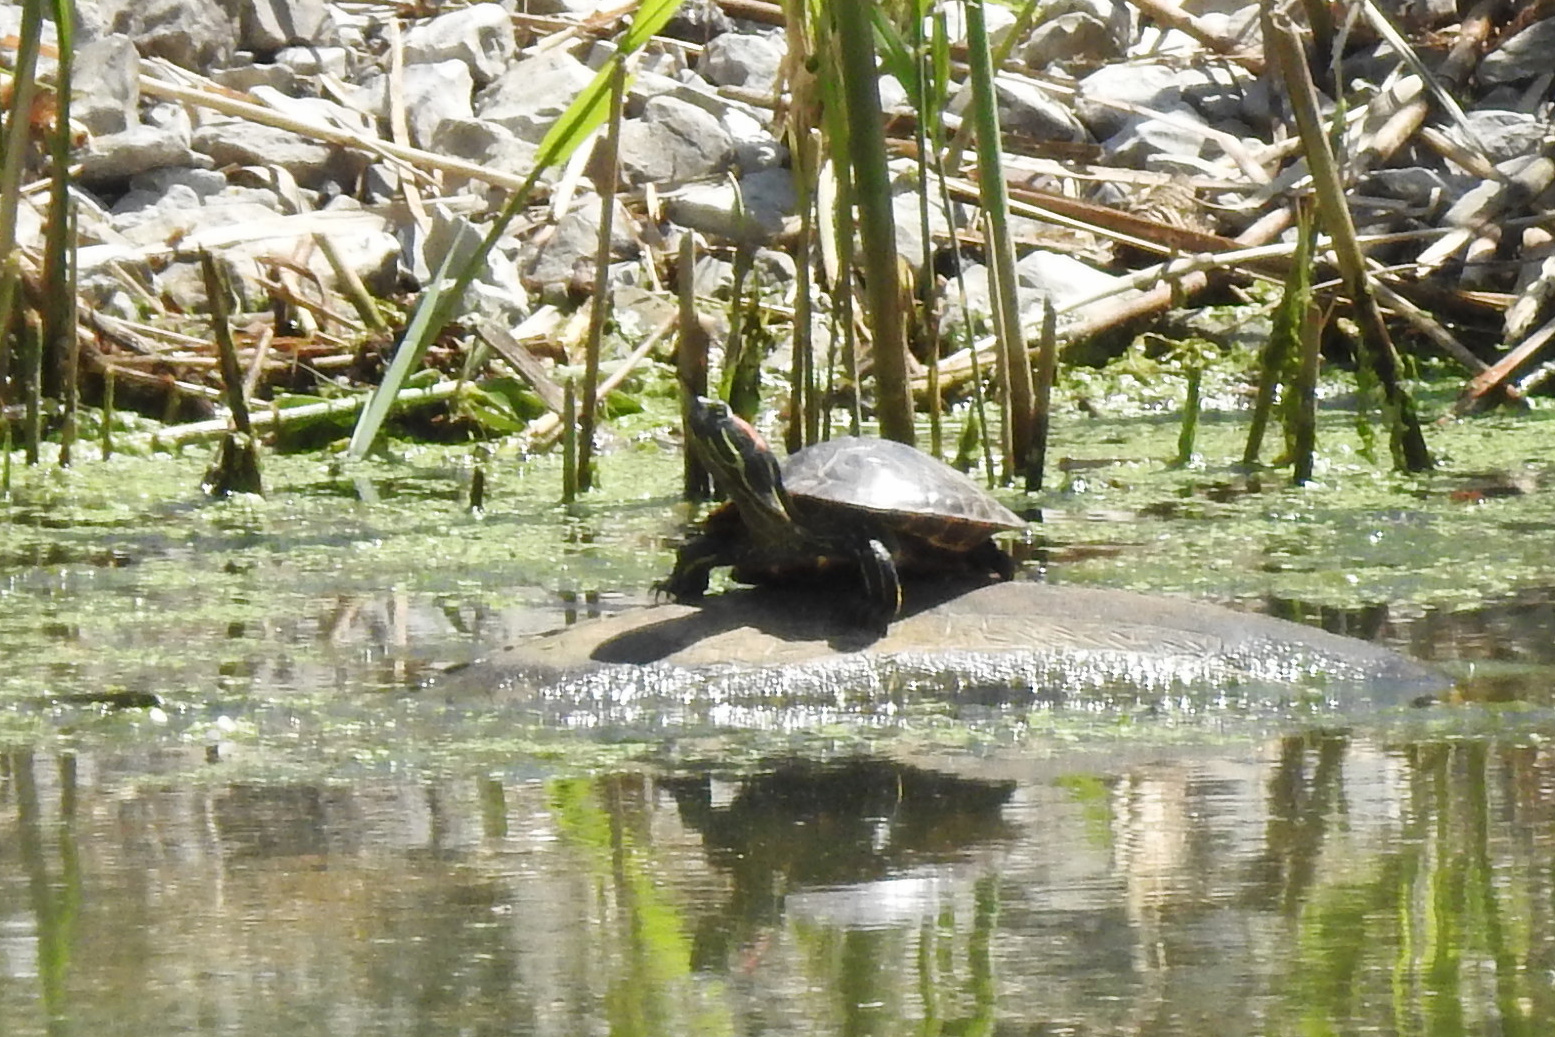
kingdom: Animalia
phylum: Chordata
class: Testudines
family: Emydidae
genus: Trachemys
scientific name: Trachemys scripta
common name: Slider
